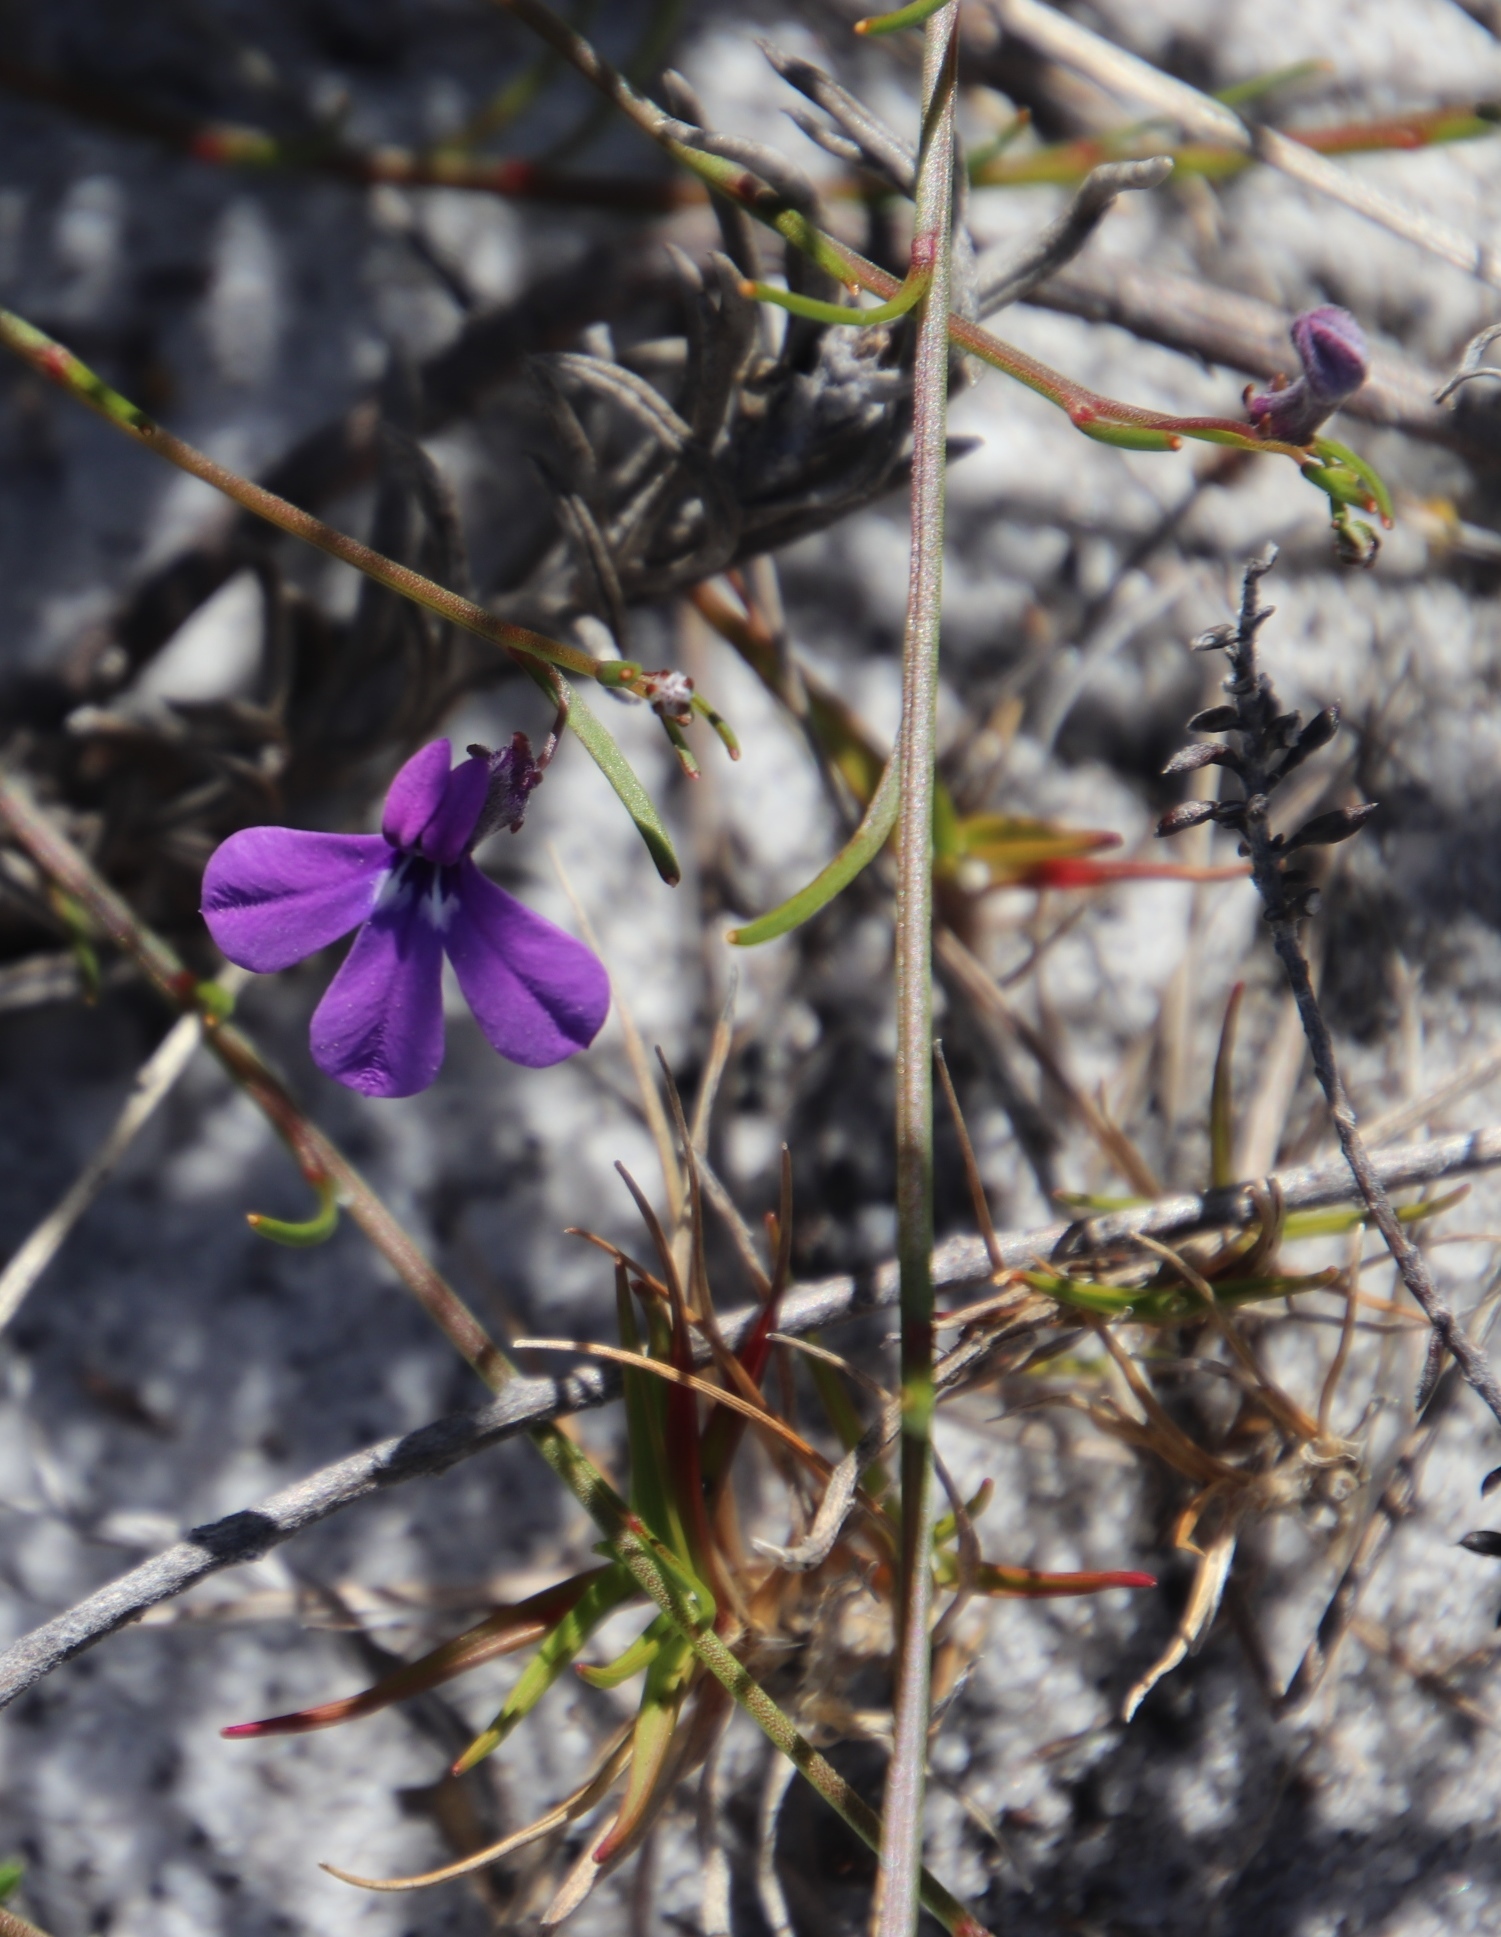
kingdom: Plantae
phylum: Tracheophyta
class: Magnoliopsida
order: Asterales
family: Campanulaceae
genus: Lobelia
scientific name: Lobelia setacea
